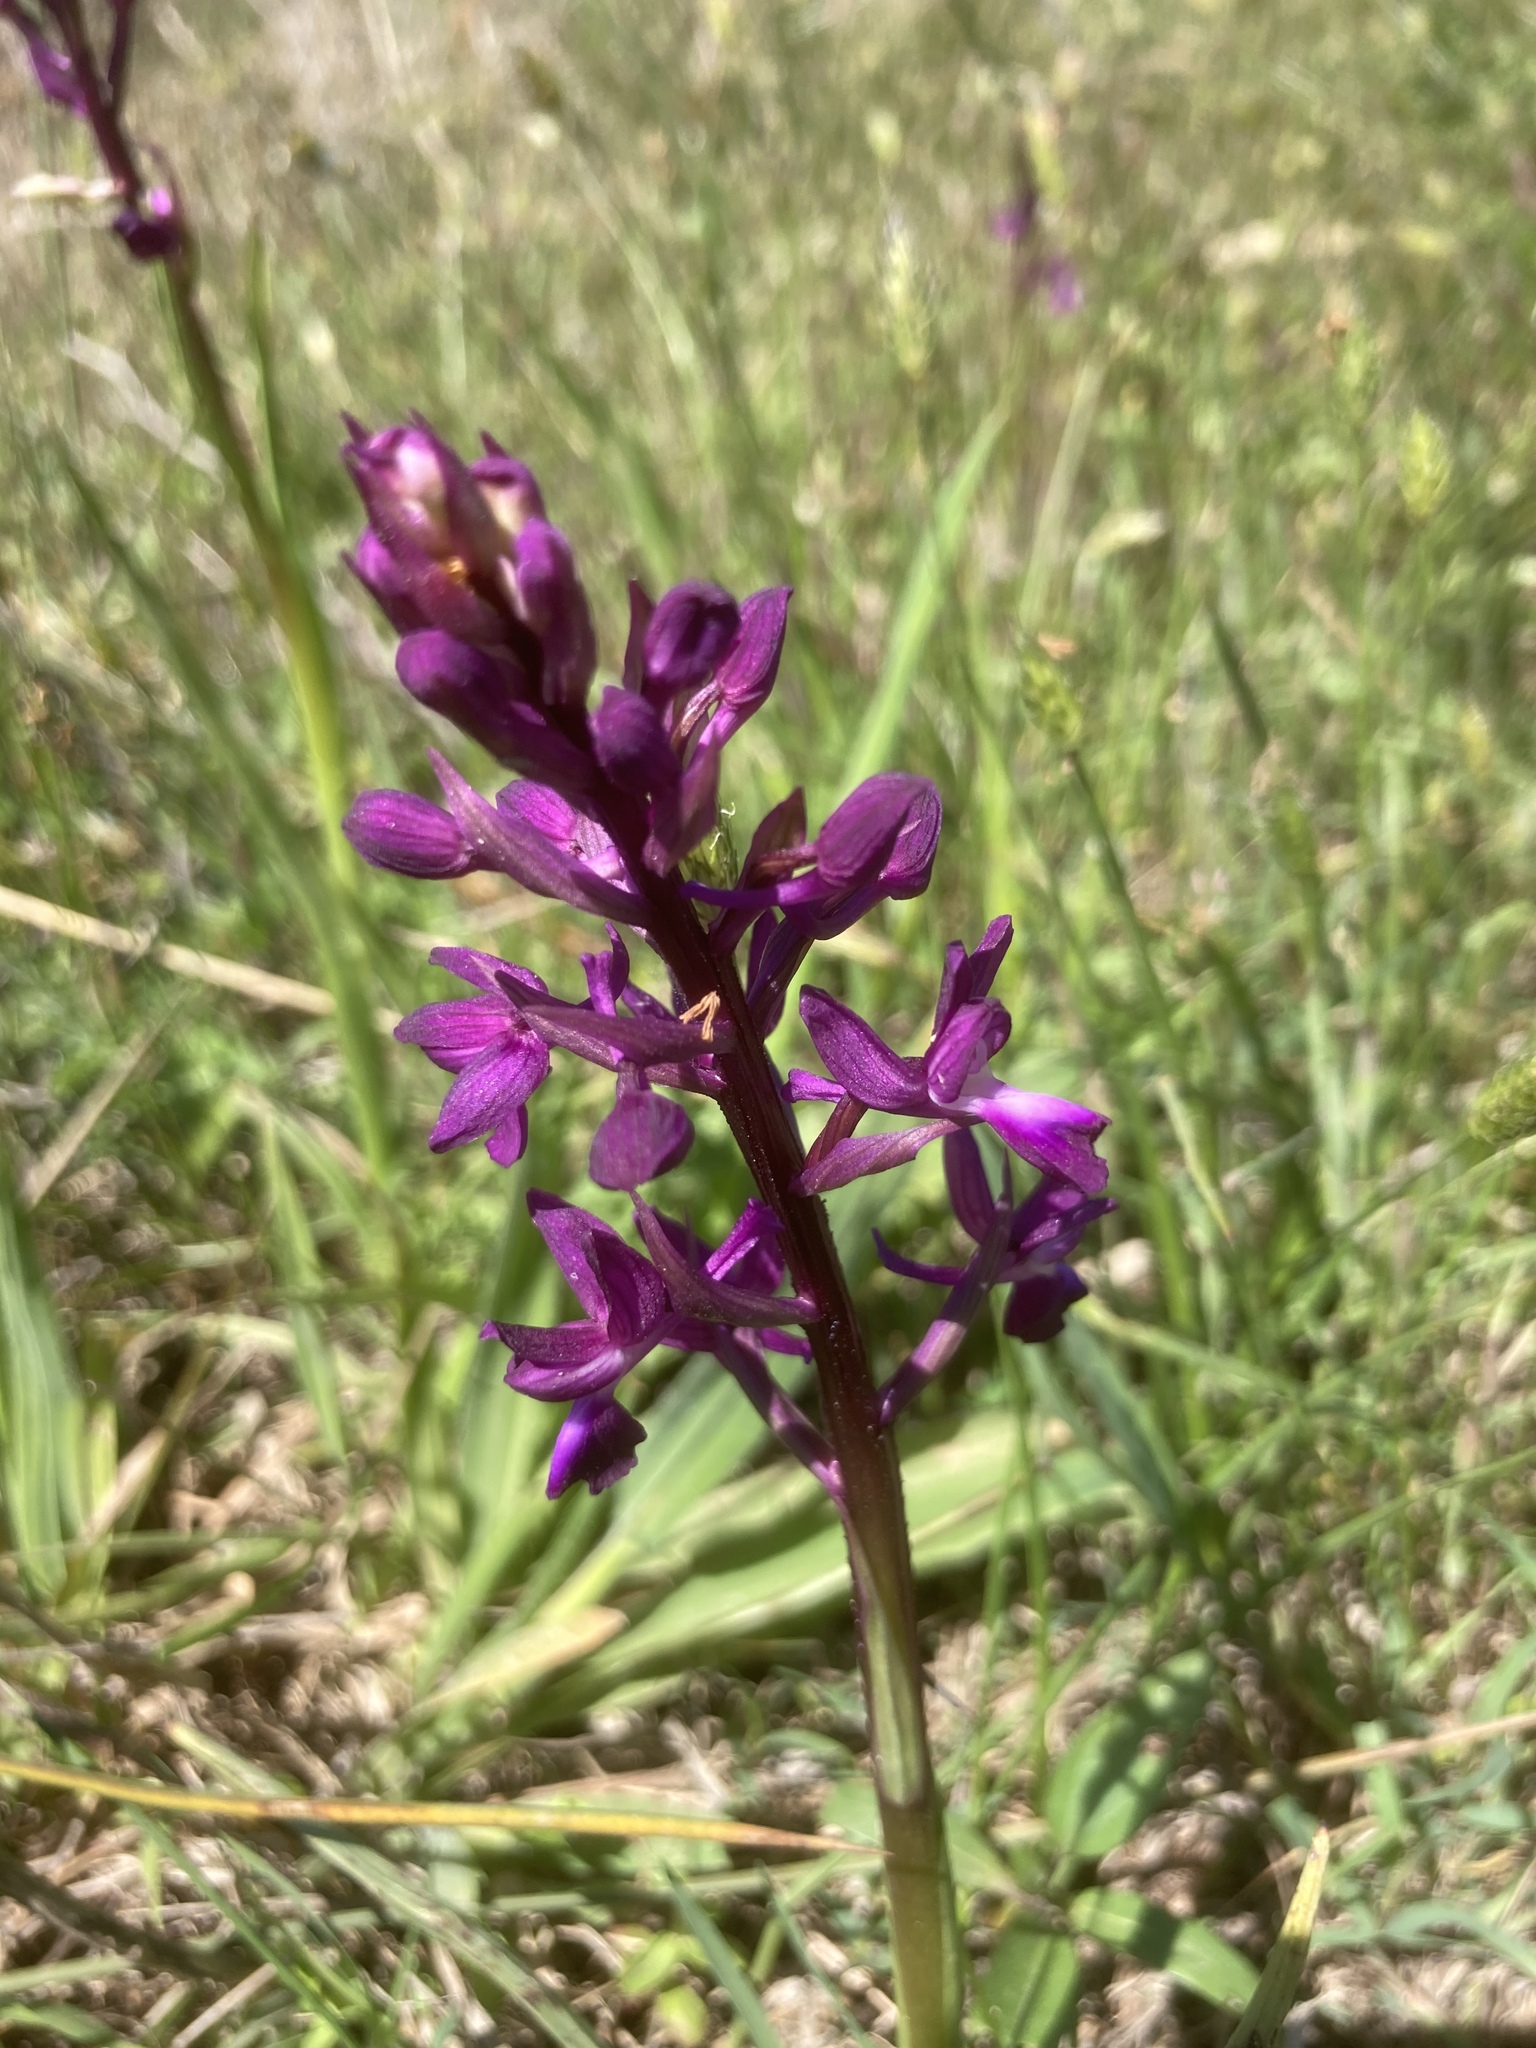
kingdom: Plantae
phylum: Tracheophyta
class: Liliopsida
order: Asparagales
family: Orchidaceae
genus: Anacamptis
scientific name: Anacamptis laxiflora
